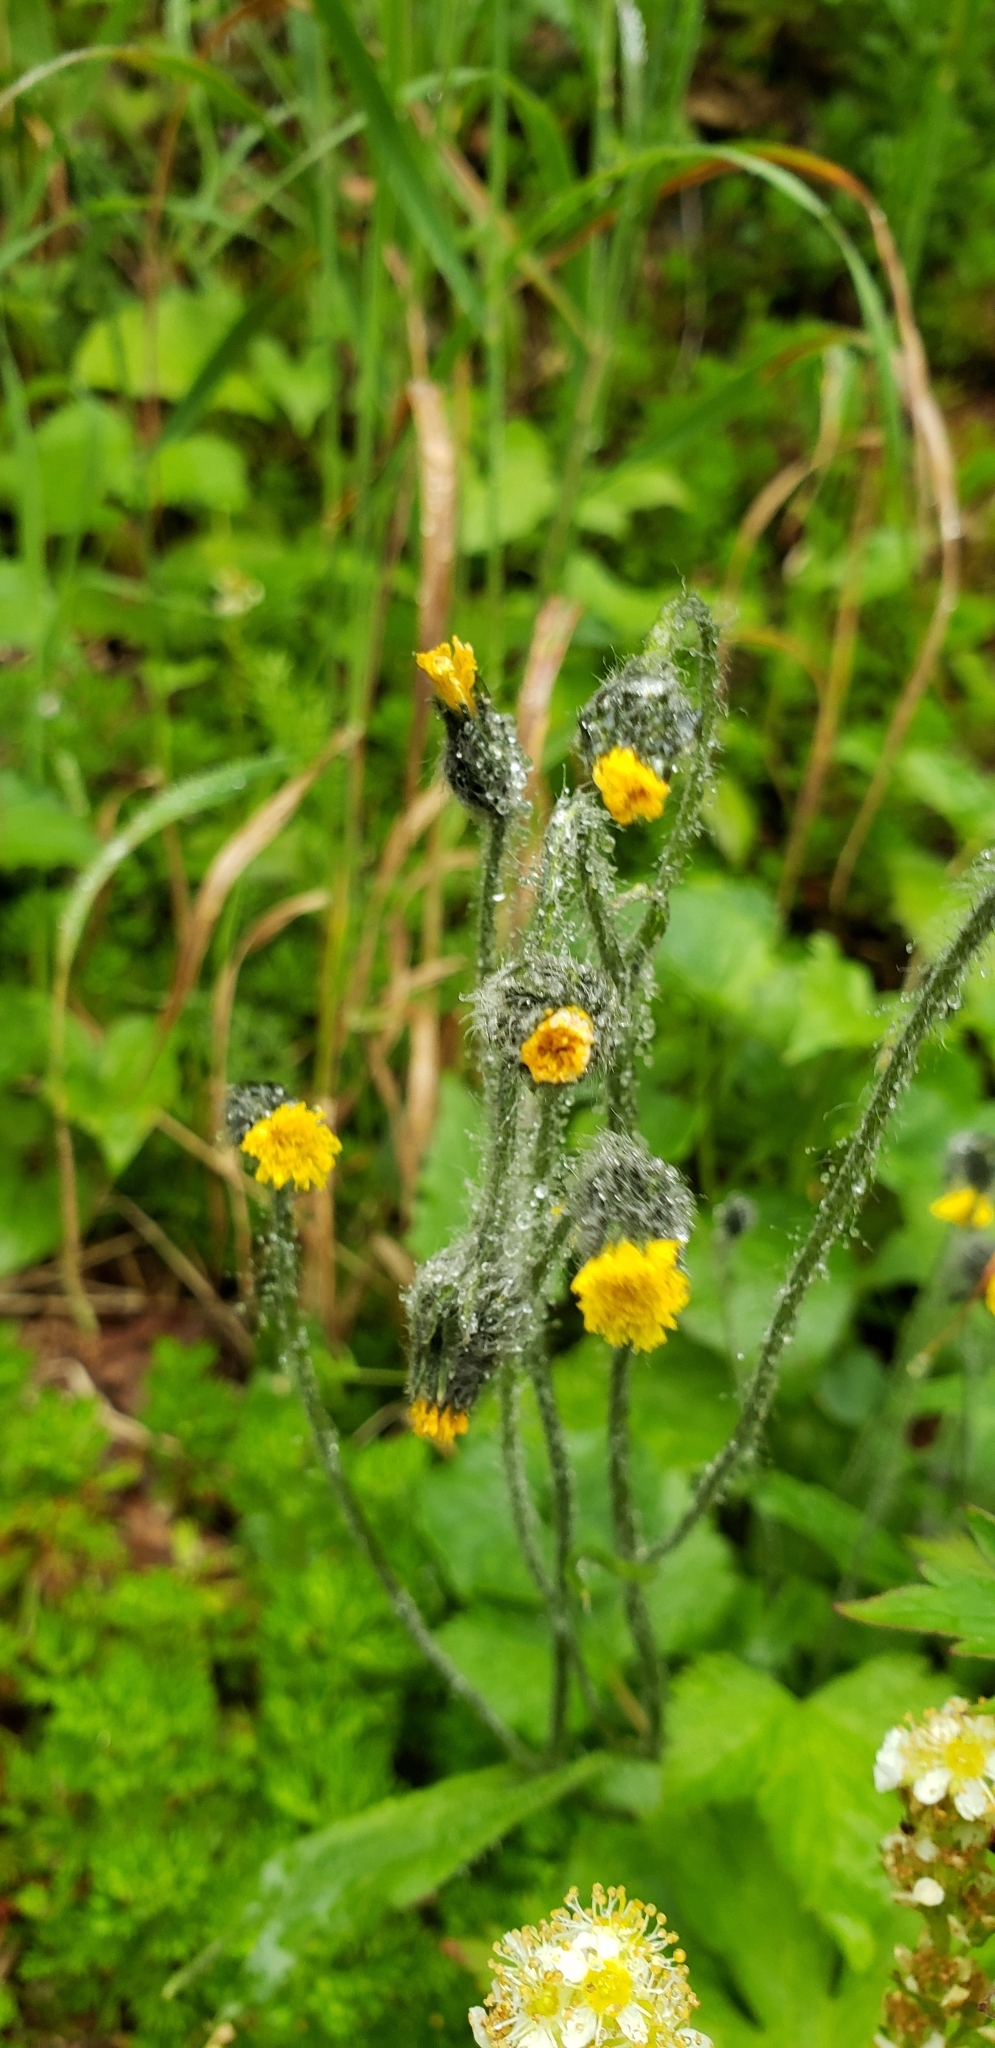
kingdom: Plantae
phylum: Tracheophyta
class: Magnoliopsida
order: Asterales
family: Asteraceae
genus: Hieracium
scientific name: Hieracium triste
